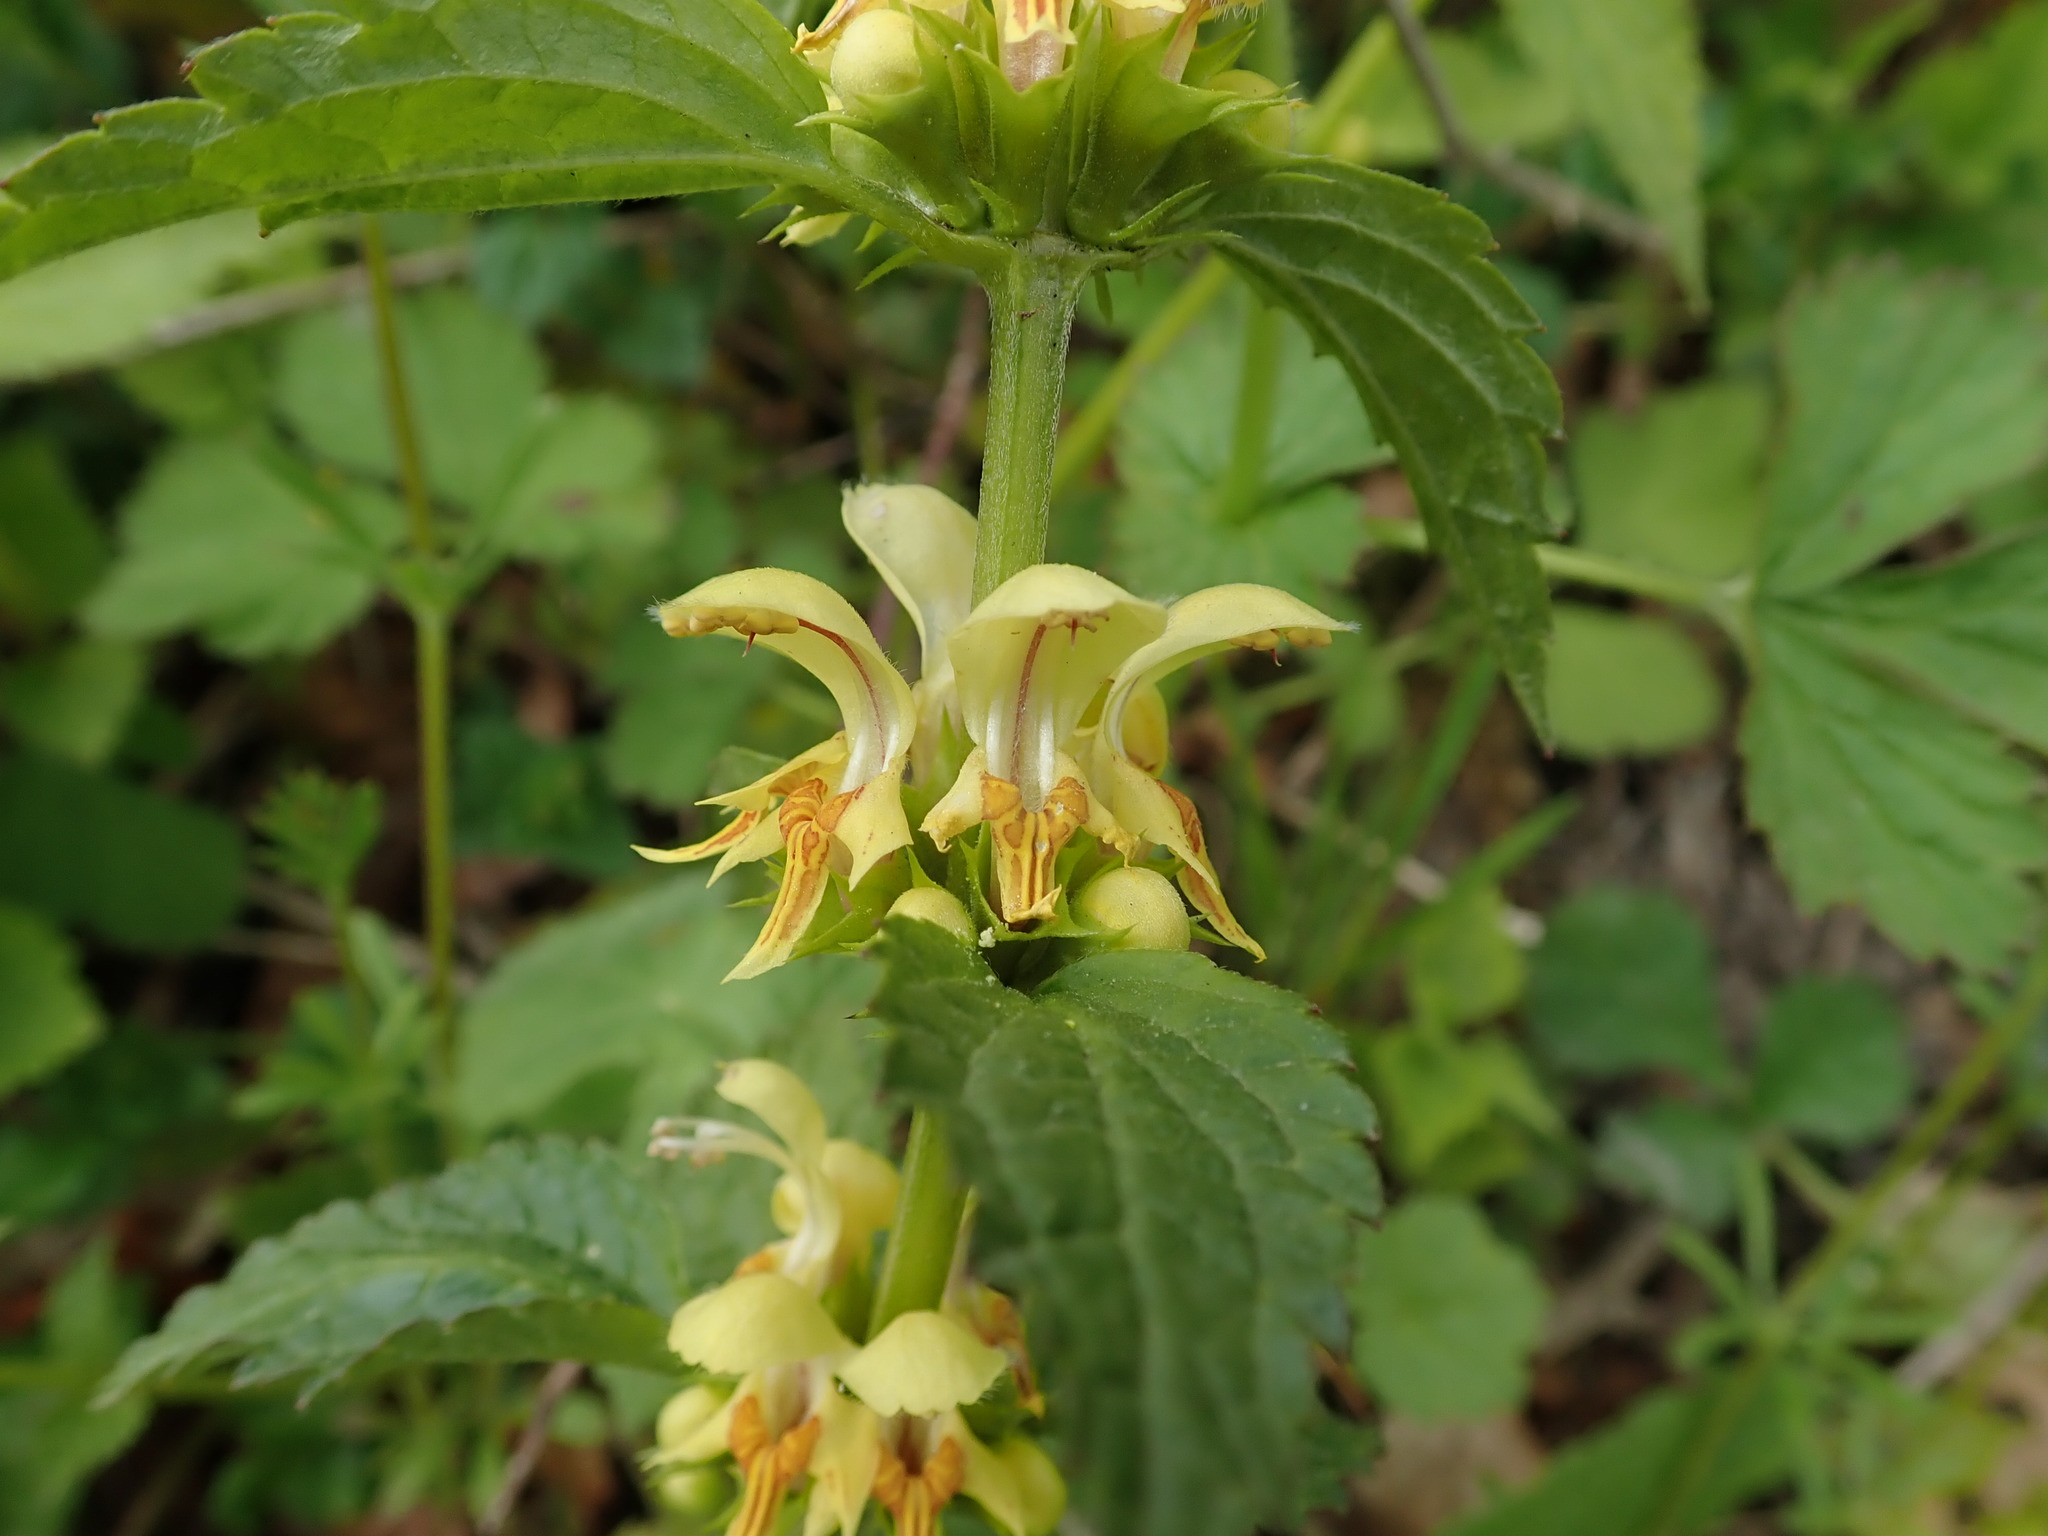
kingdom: Plantae
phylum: Tracheophyta
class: Magnoliopsida
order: Lamiales
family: Lamiaceae
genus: Lamium
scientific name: Lamium galeobdolon
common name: Yellow archangel
